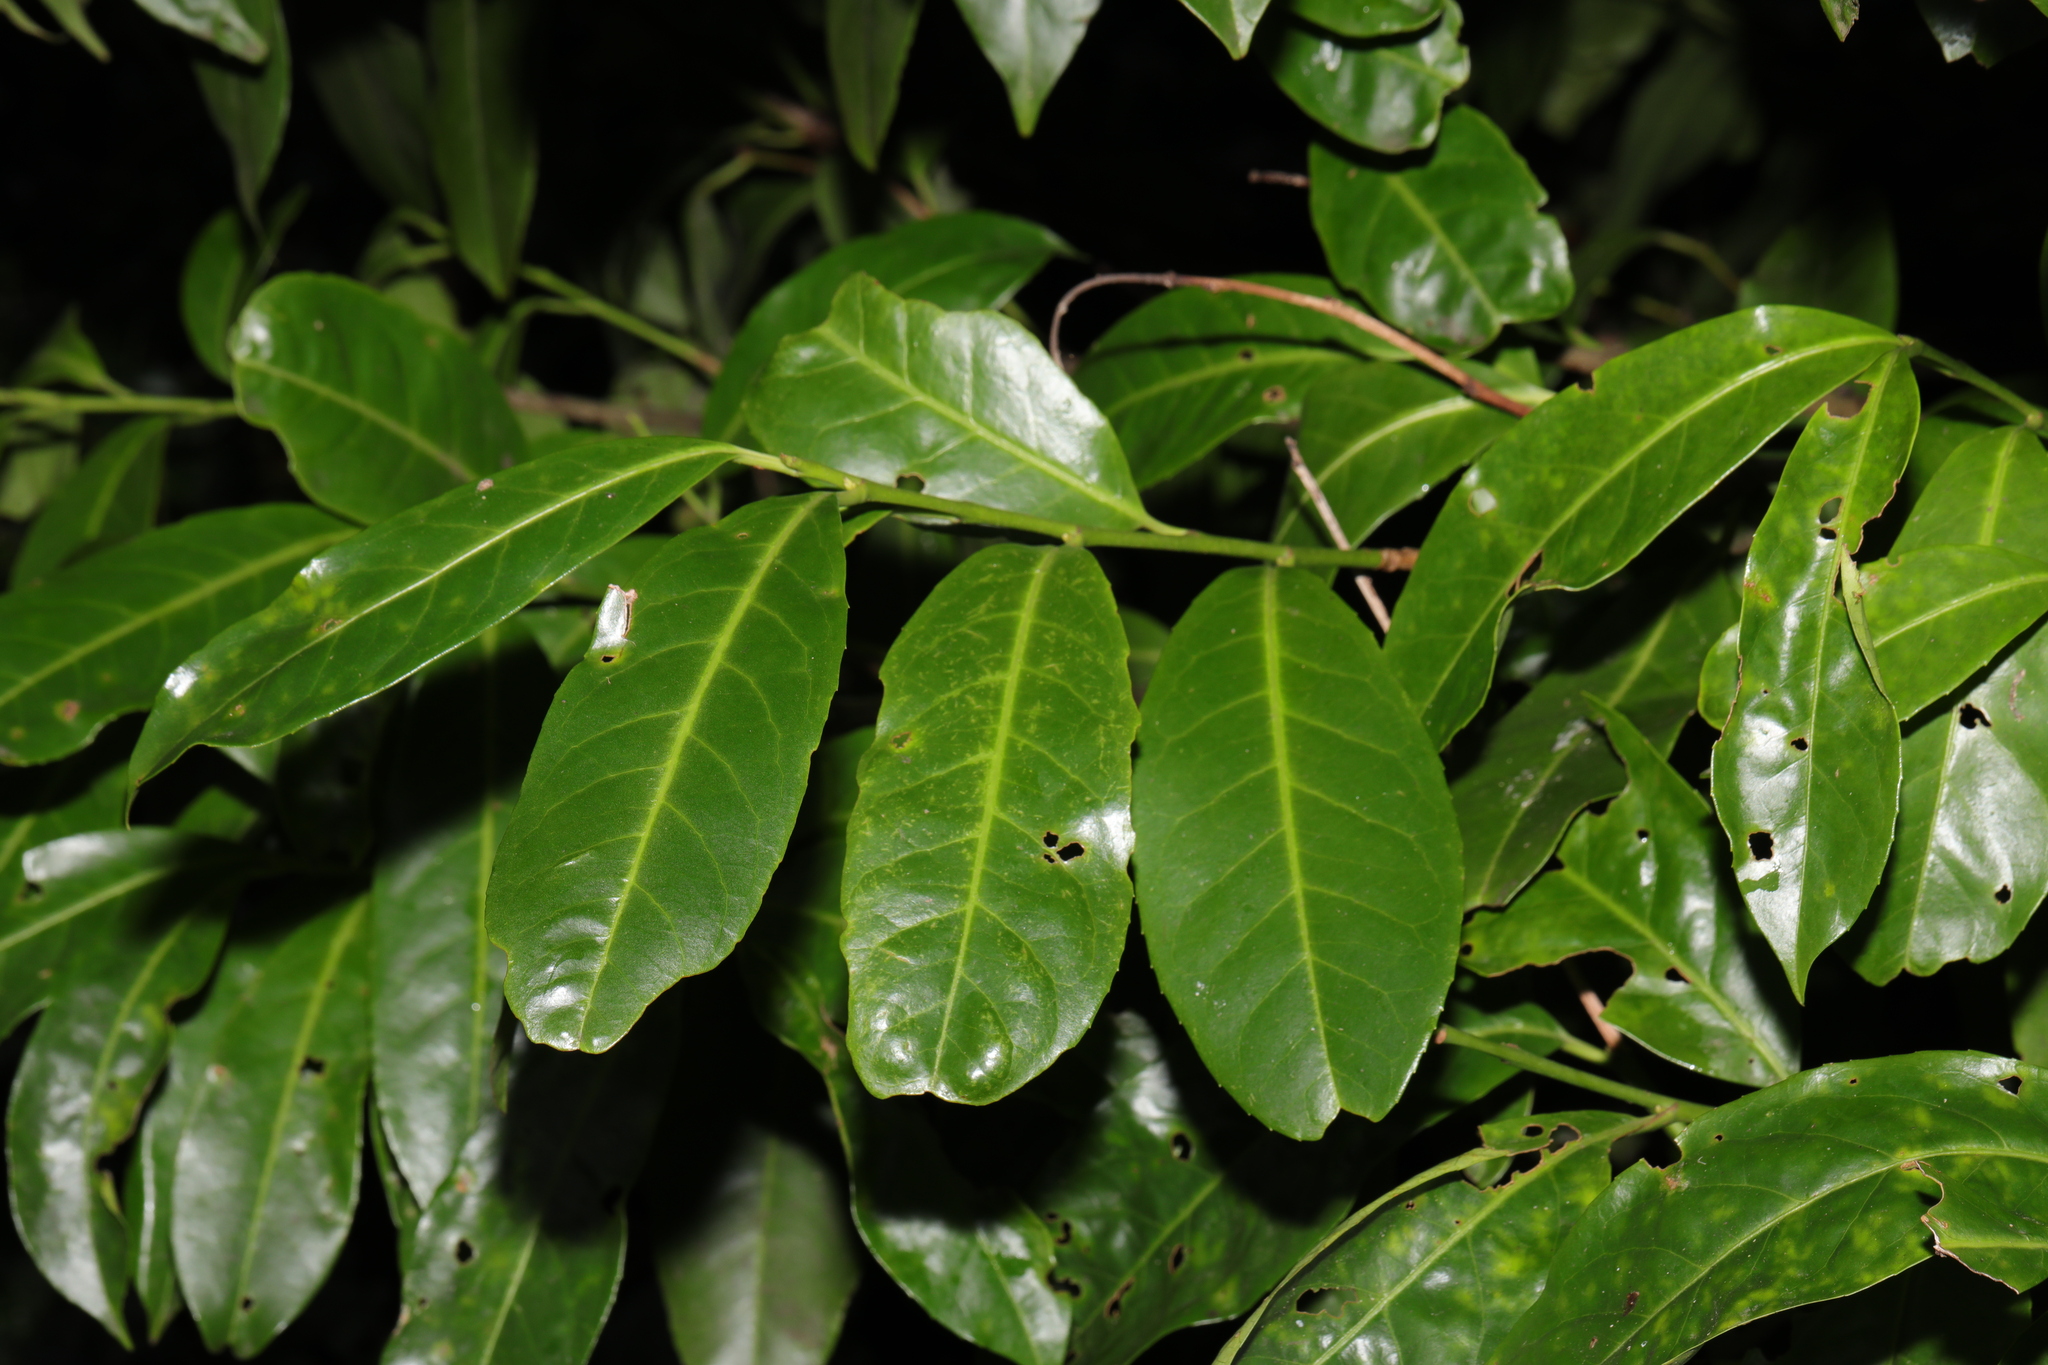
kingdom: Plantae
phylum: Tracheophyta
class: Magnoliopsida
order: Rosales
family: Rosaceae
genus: Prunus
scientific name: Prunus laurocerasus
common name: Cherry laurel
